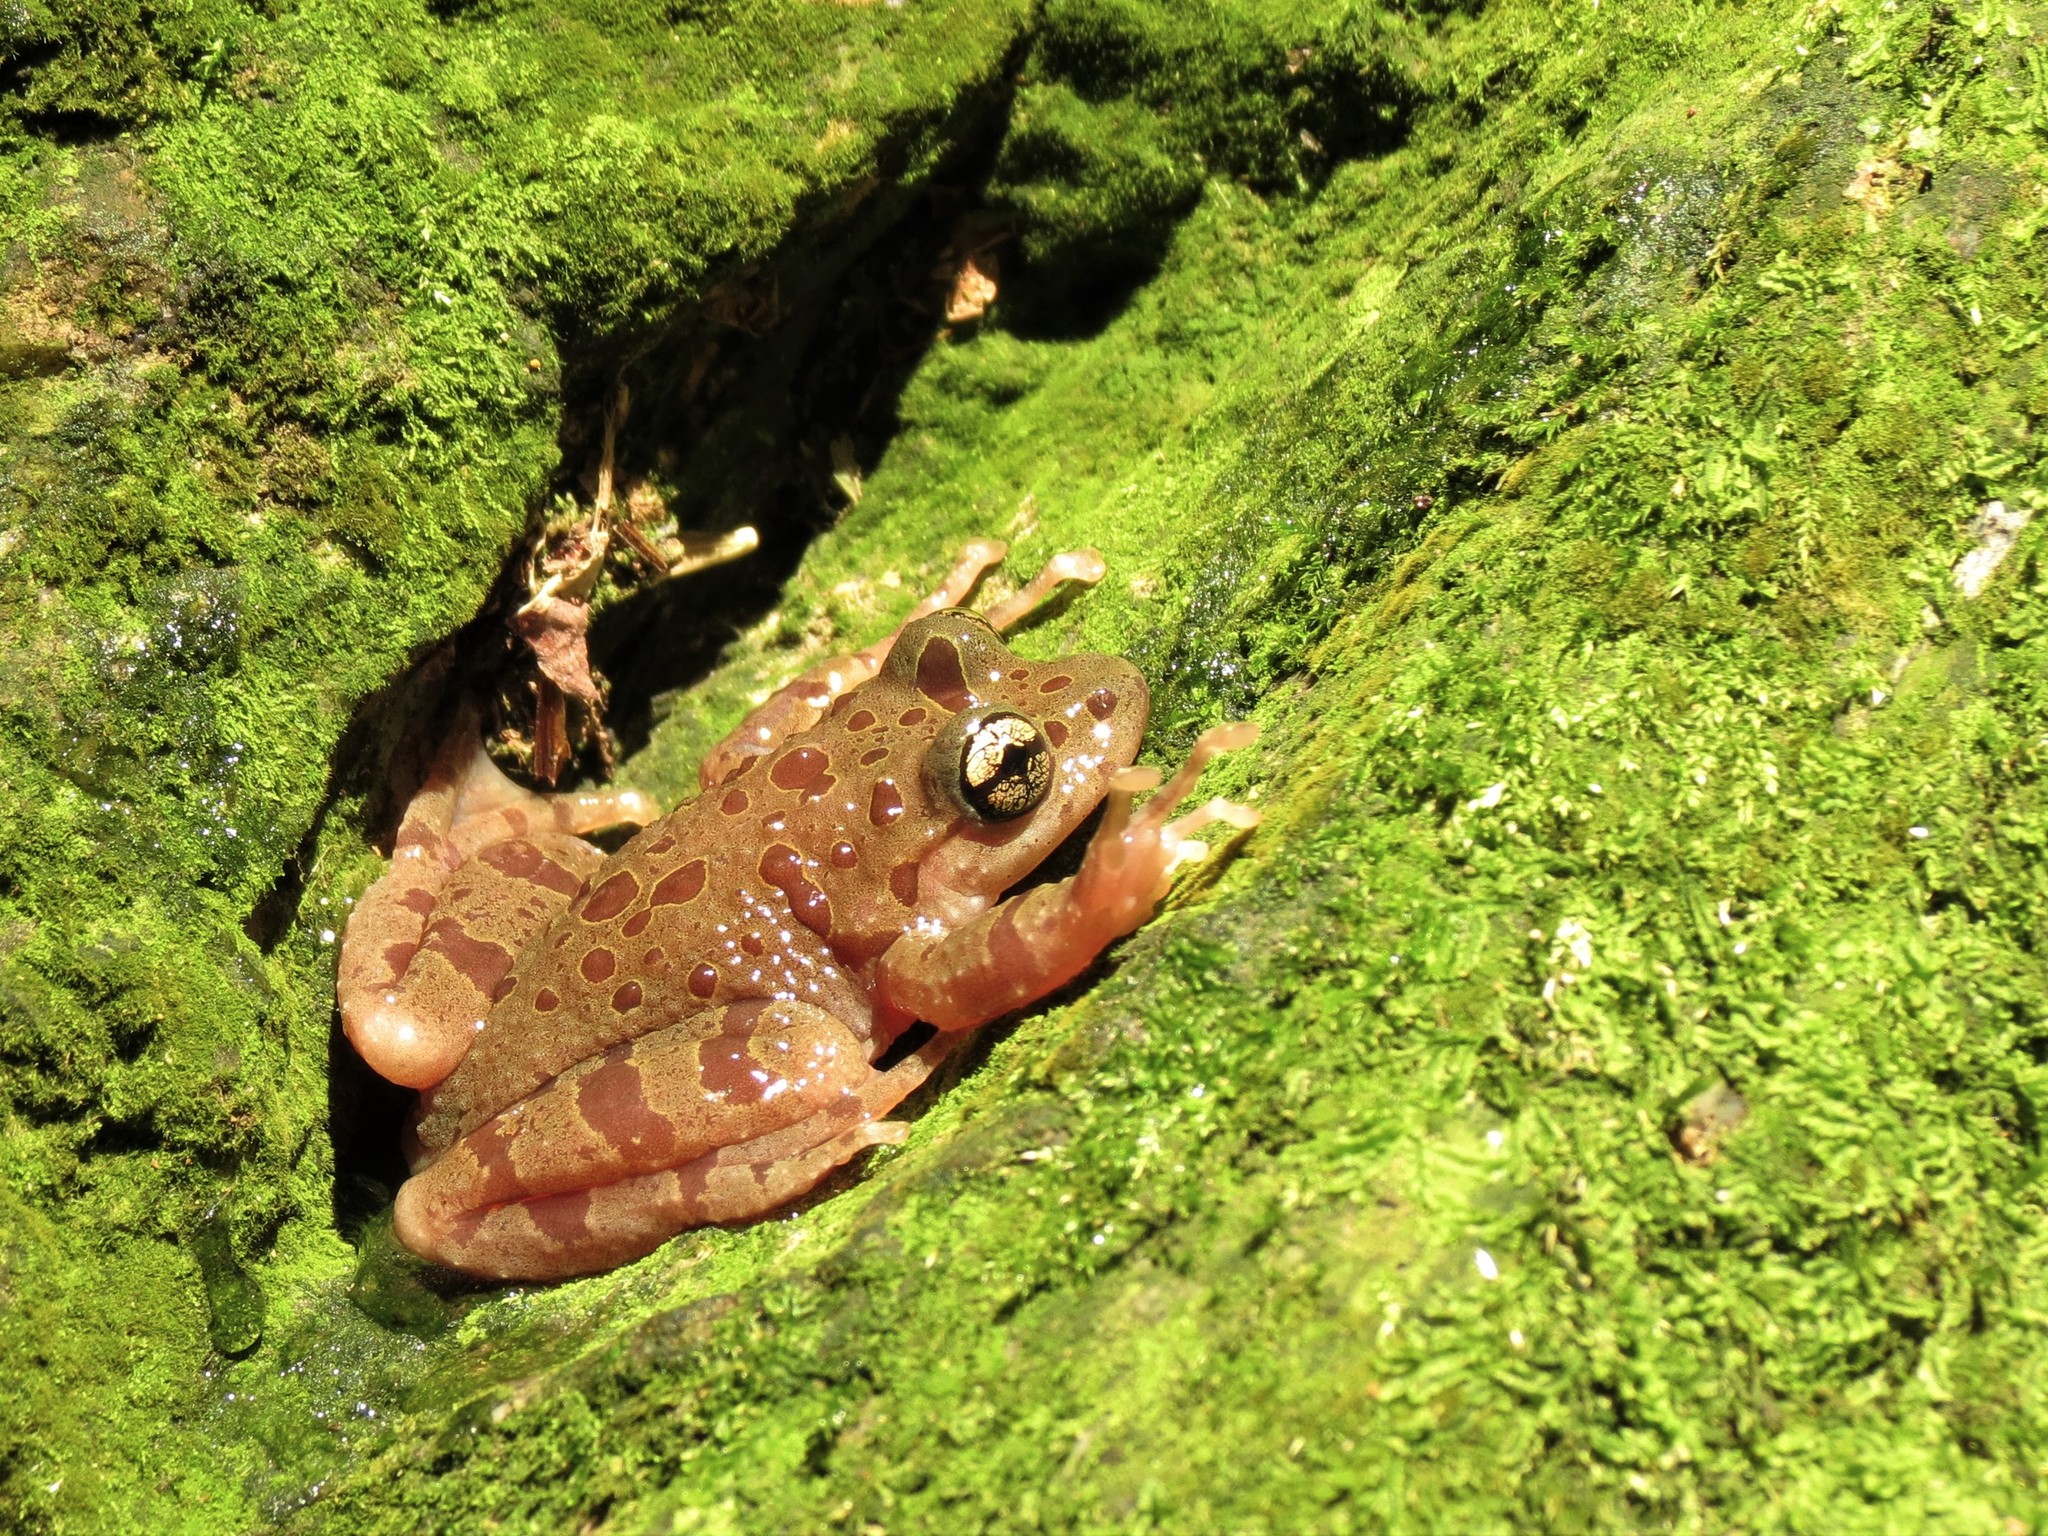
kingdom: Animalia
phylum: Chordata
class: Amphibia
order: Anura
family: Heleophrynidae
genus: Heleophryne
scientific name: Heleophryne orientalis
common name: East cape ghost frog
